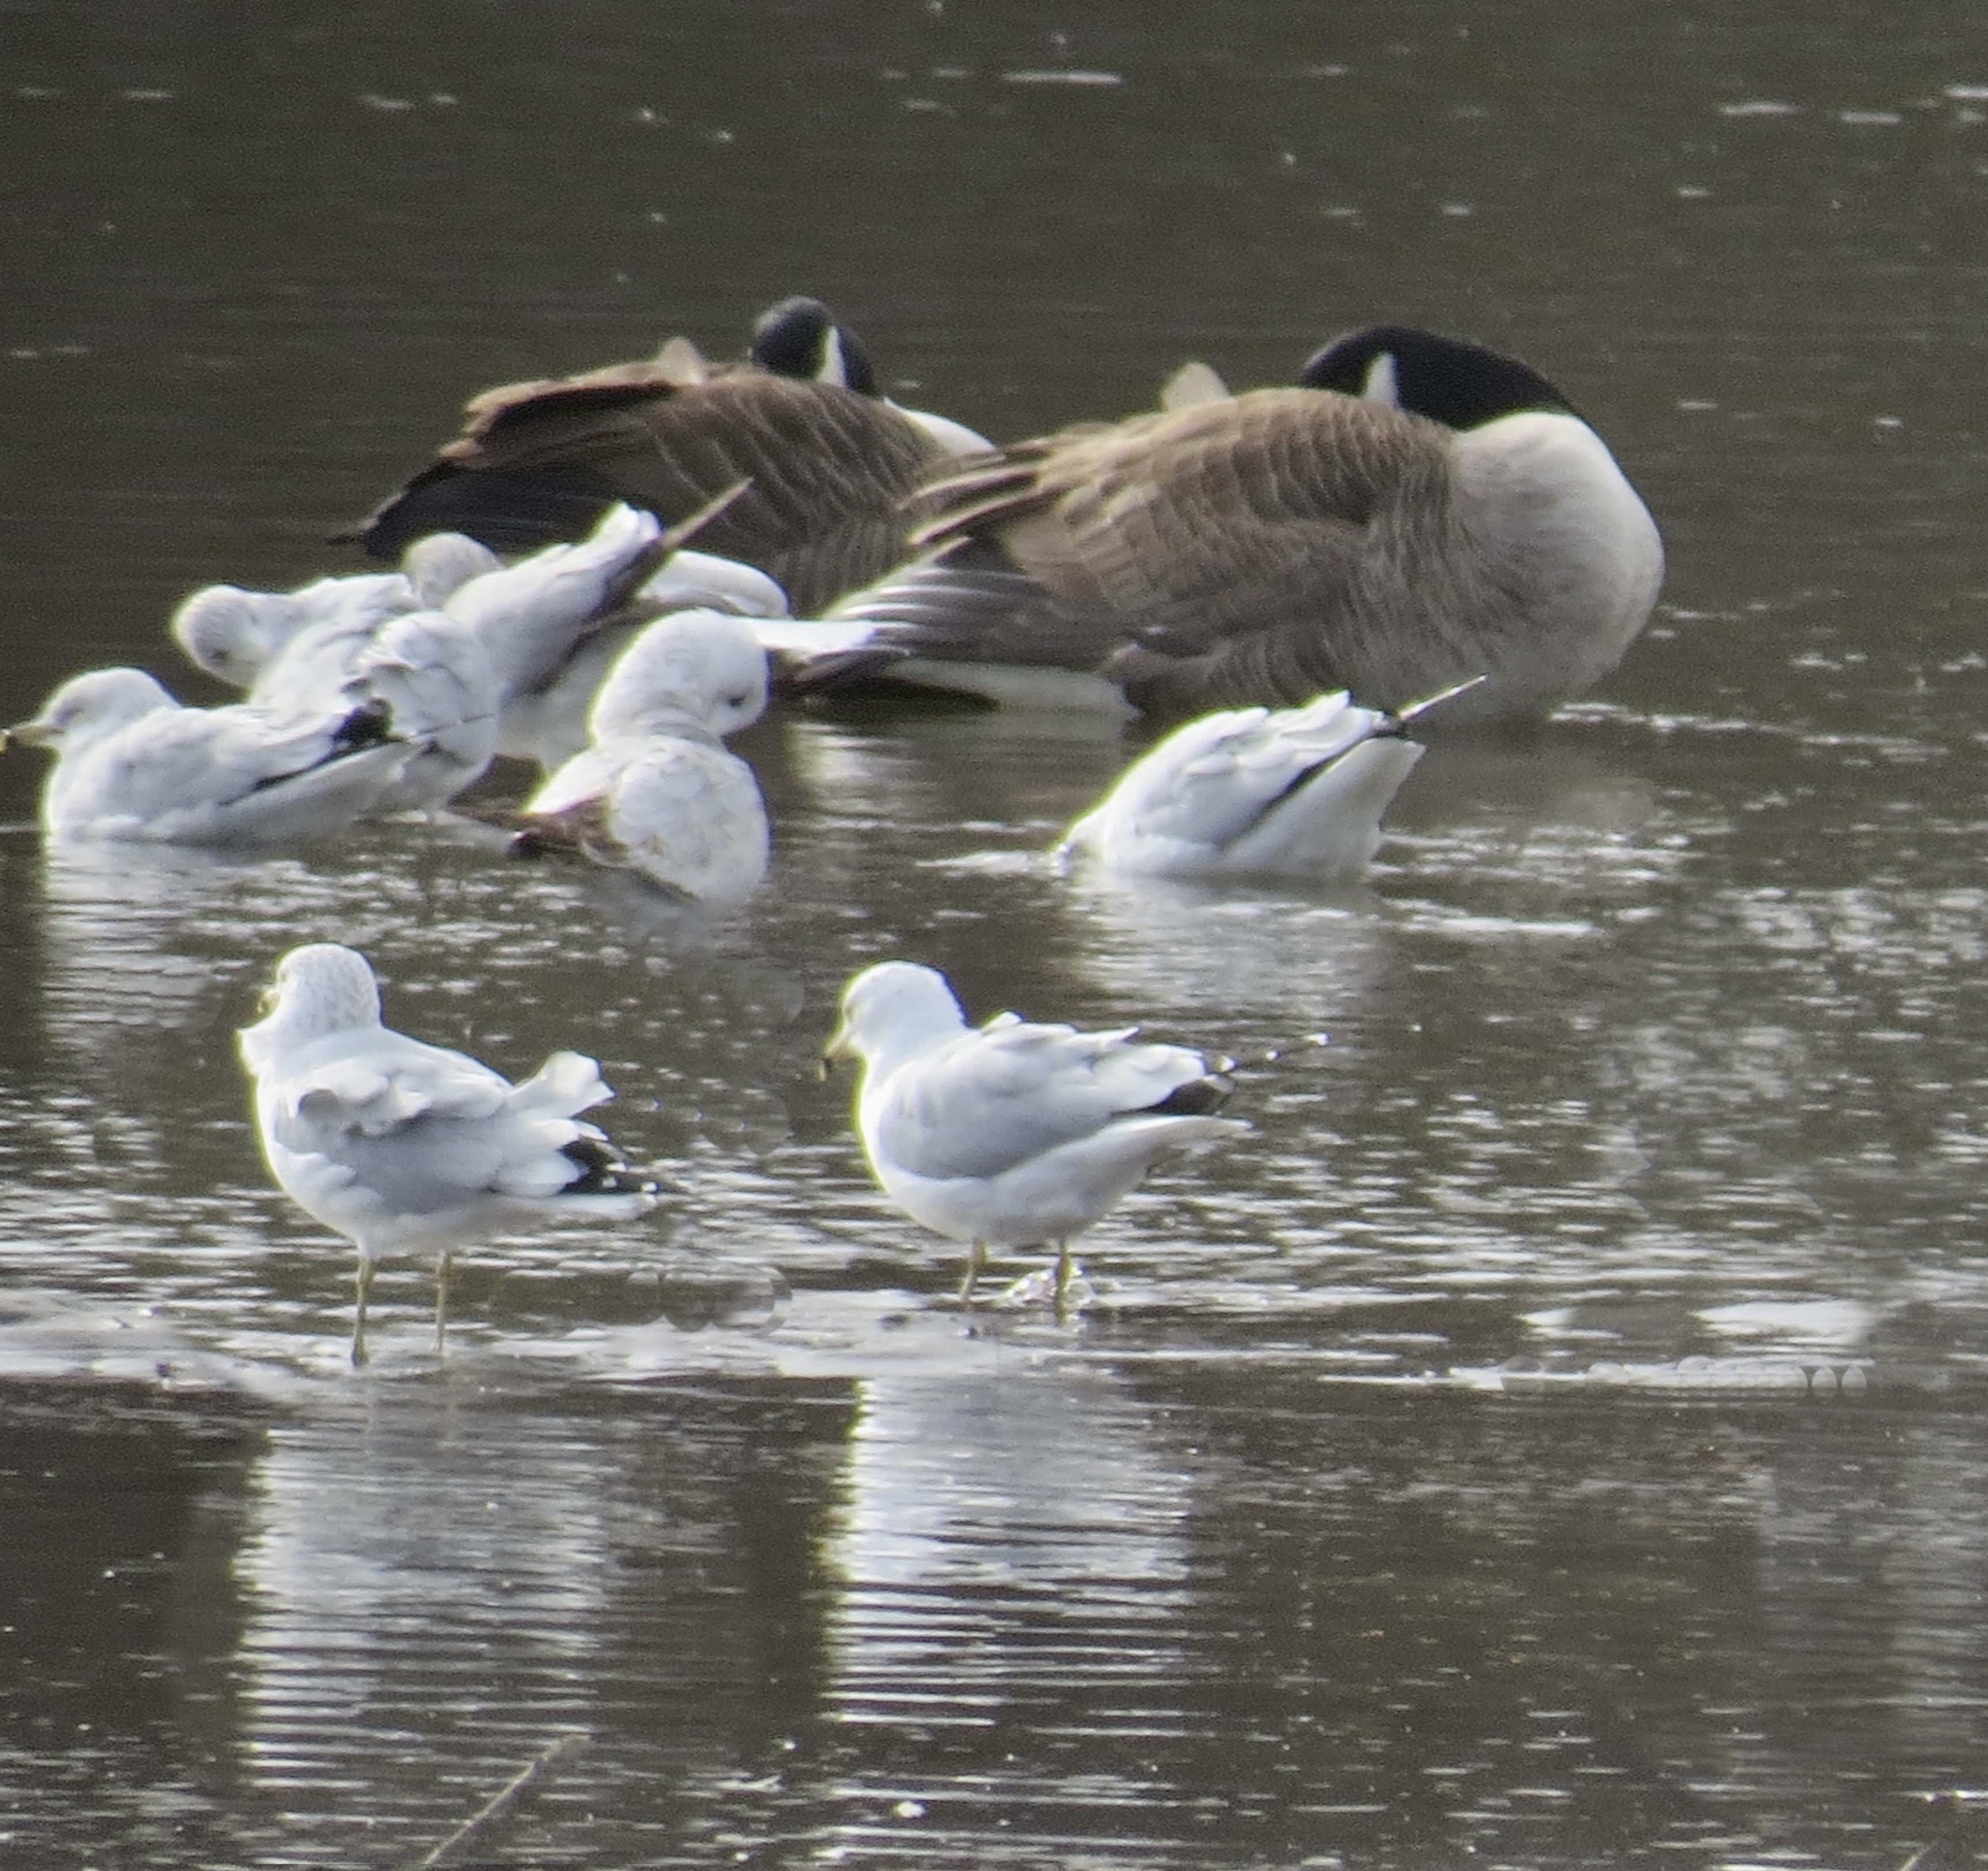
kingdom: Animalia
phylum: Chordata
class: Aves
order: Charadriiformes
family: Laridae
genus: Larus
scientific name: Larus delawarensis
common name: Ring-billed gull
